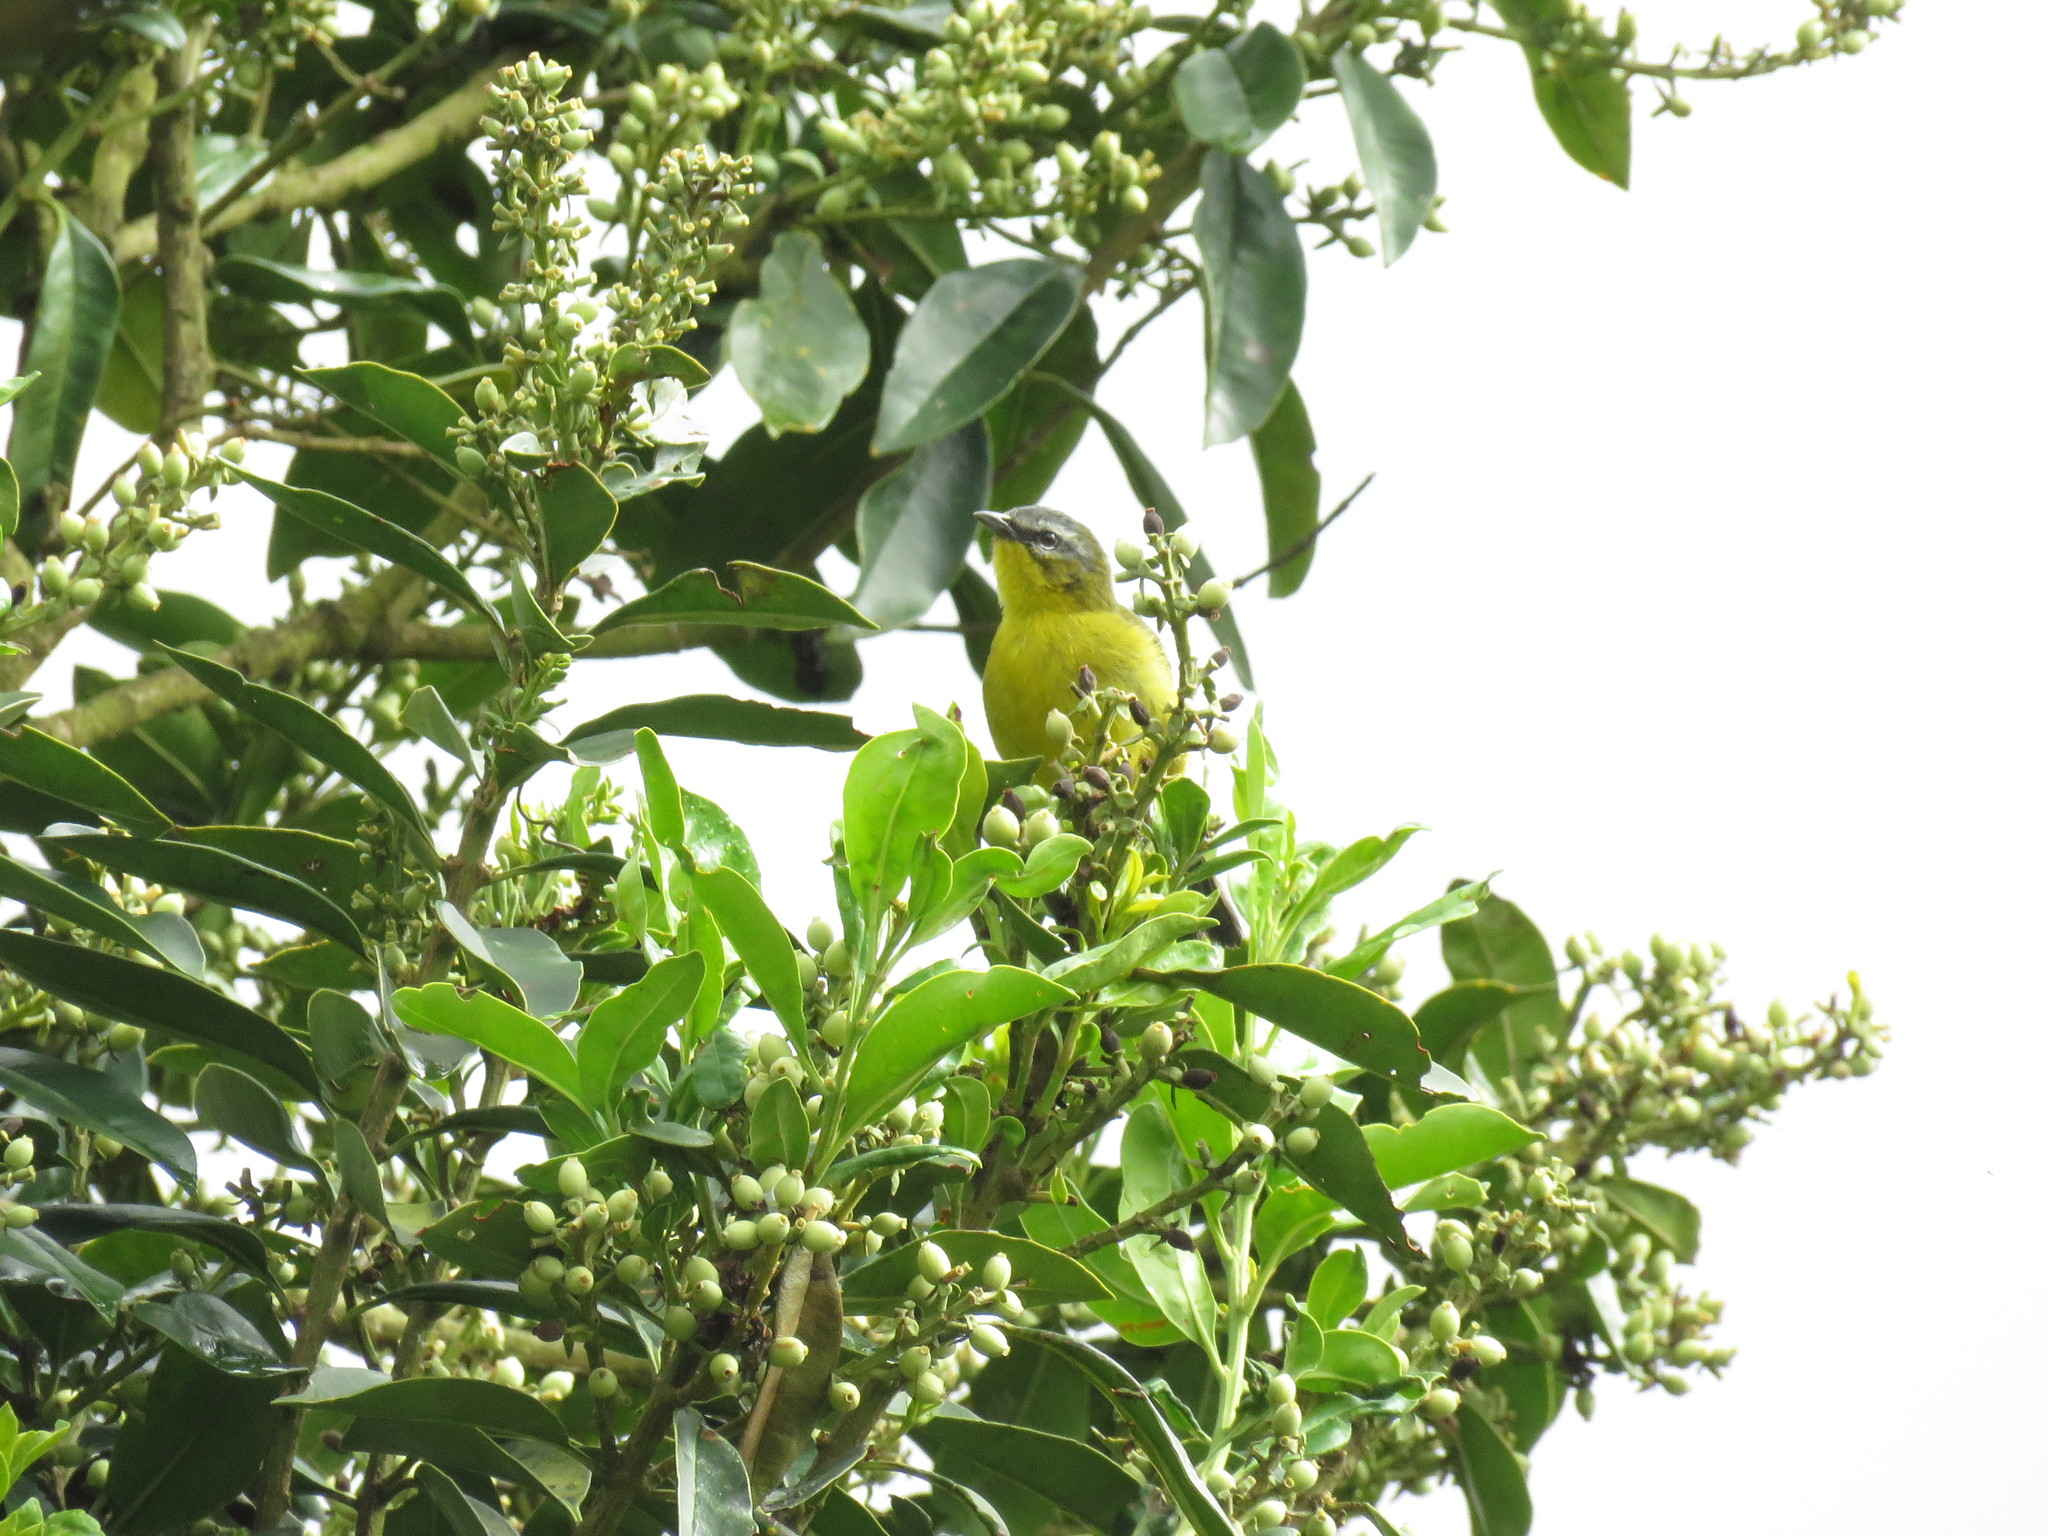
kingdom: Animalia
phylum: Chordata
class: Aves
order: Passeriformes
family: Thraupidae
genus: Thlypopsis
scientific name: Thlypopsis superciliaris
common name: Superciliaried hemispingus
